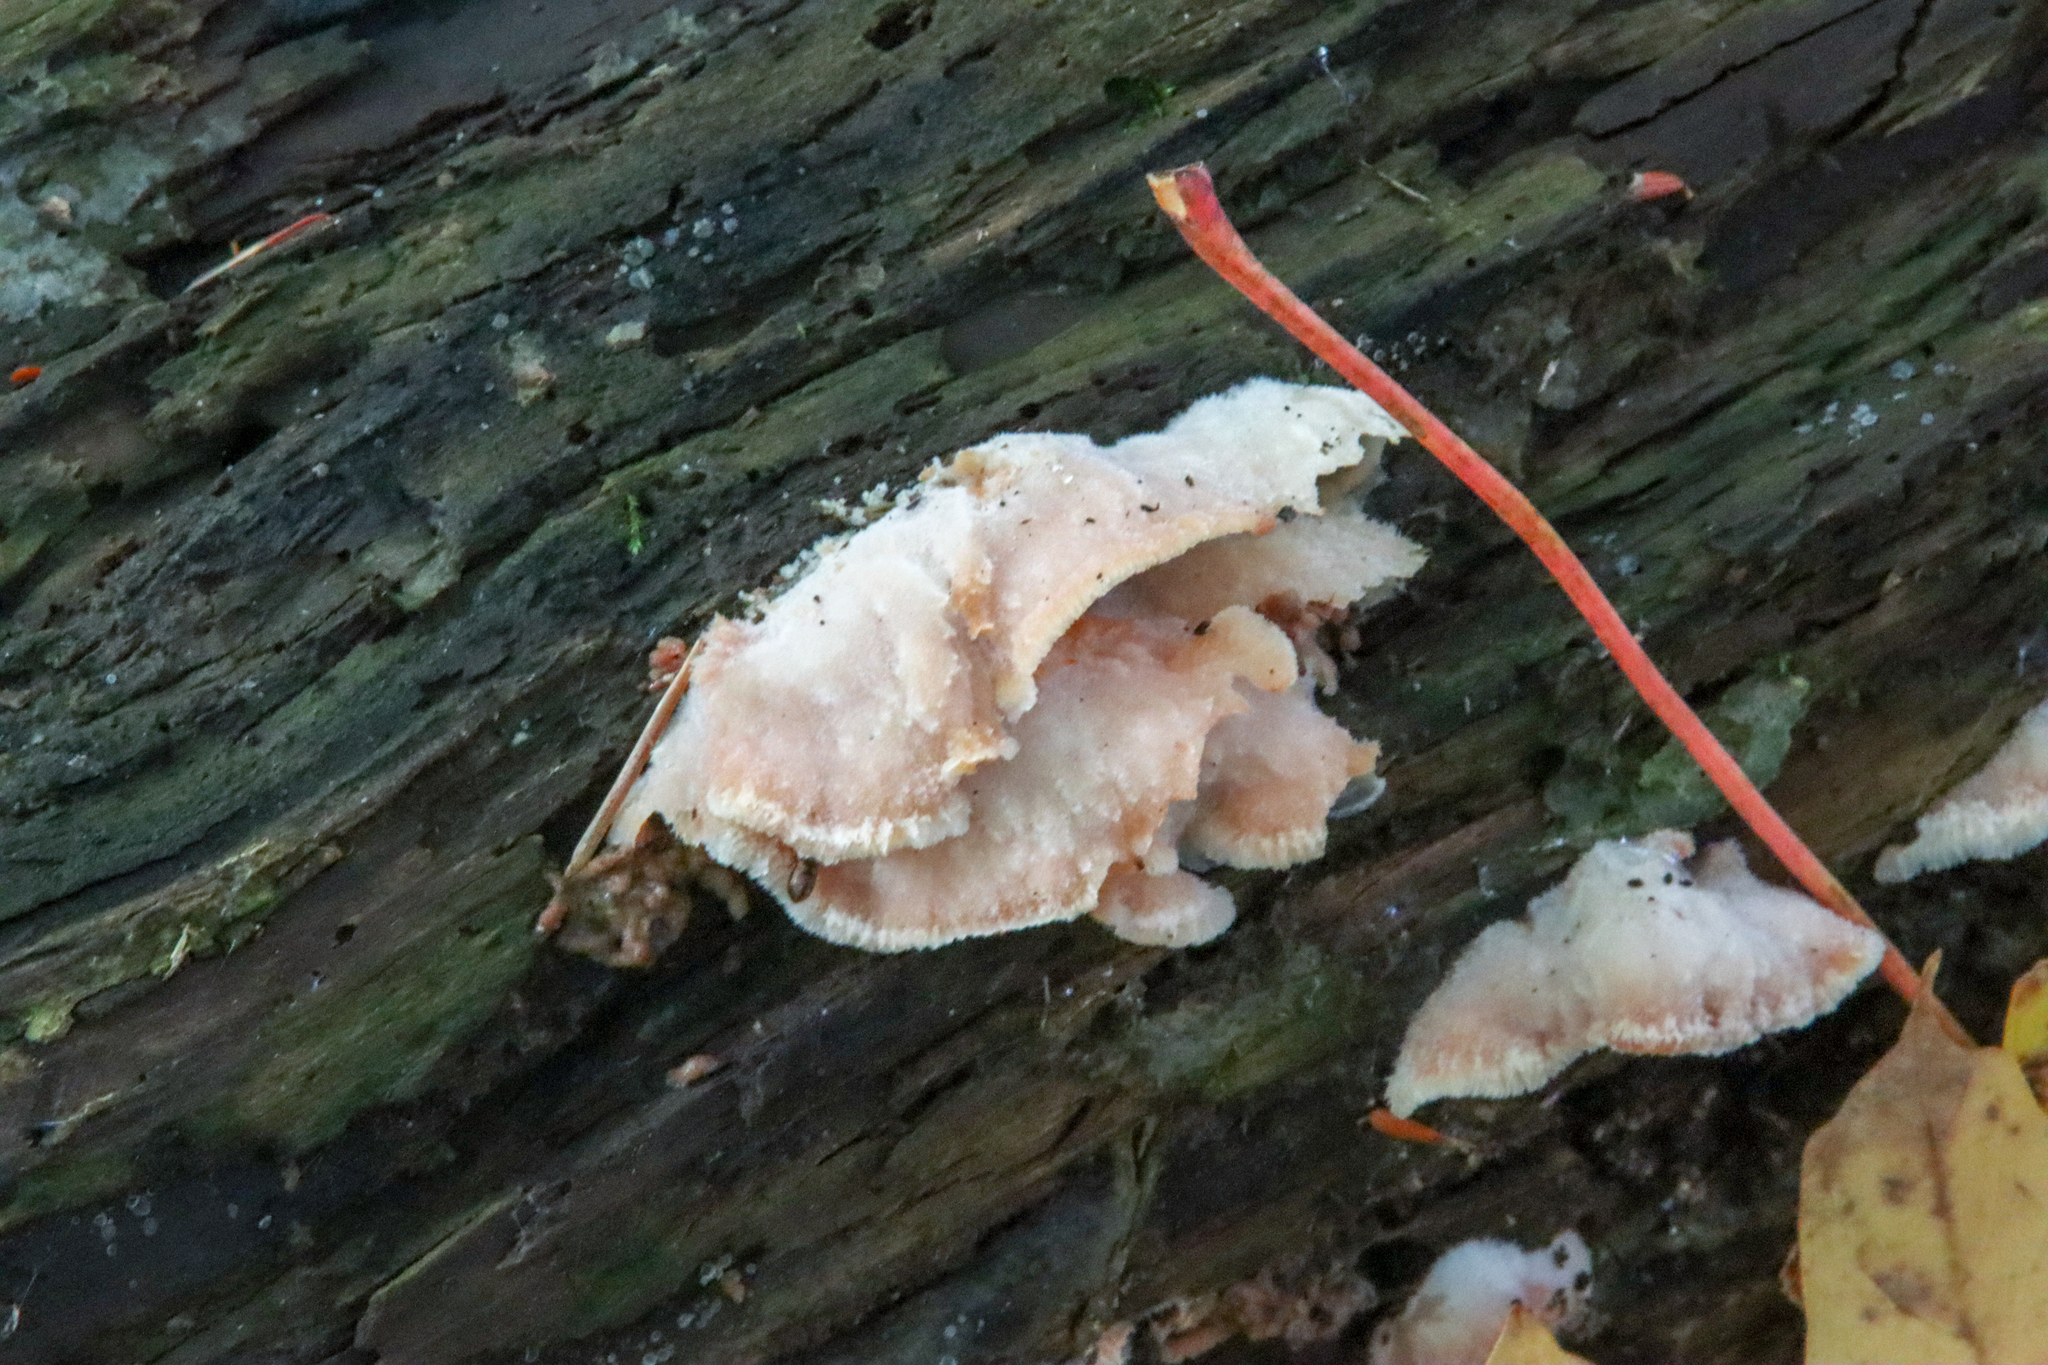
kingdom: Fungi
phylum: Basidiomycota
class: Agaricomycetes
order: Polyporales
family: Meruliaceae
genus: Phlebia
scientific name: Phlebia tremellosa
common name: Jelly rot
